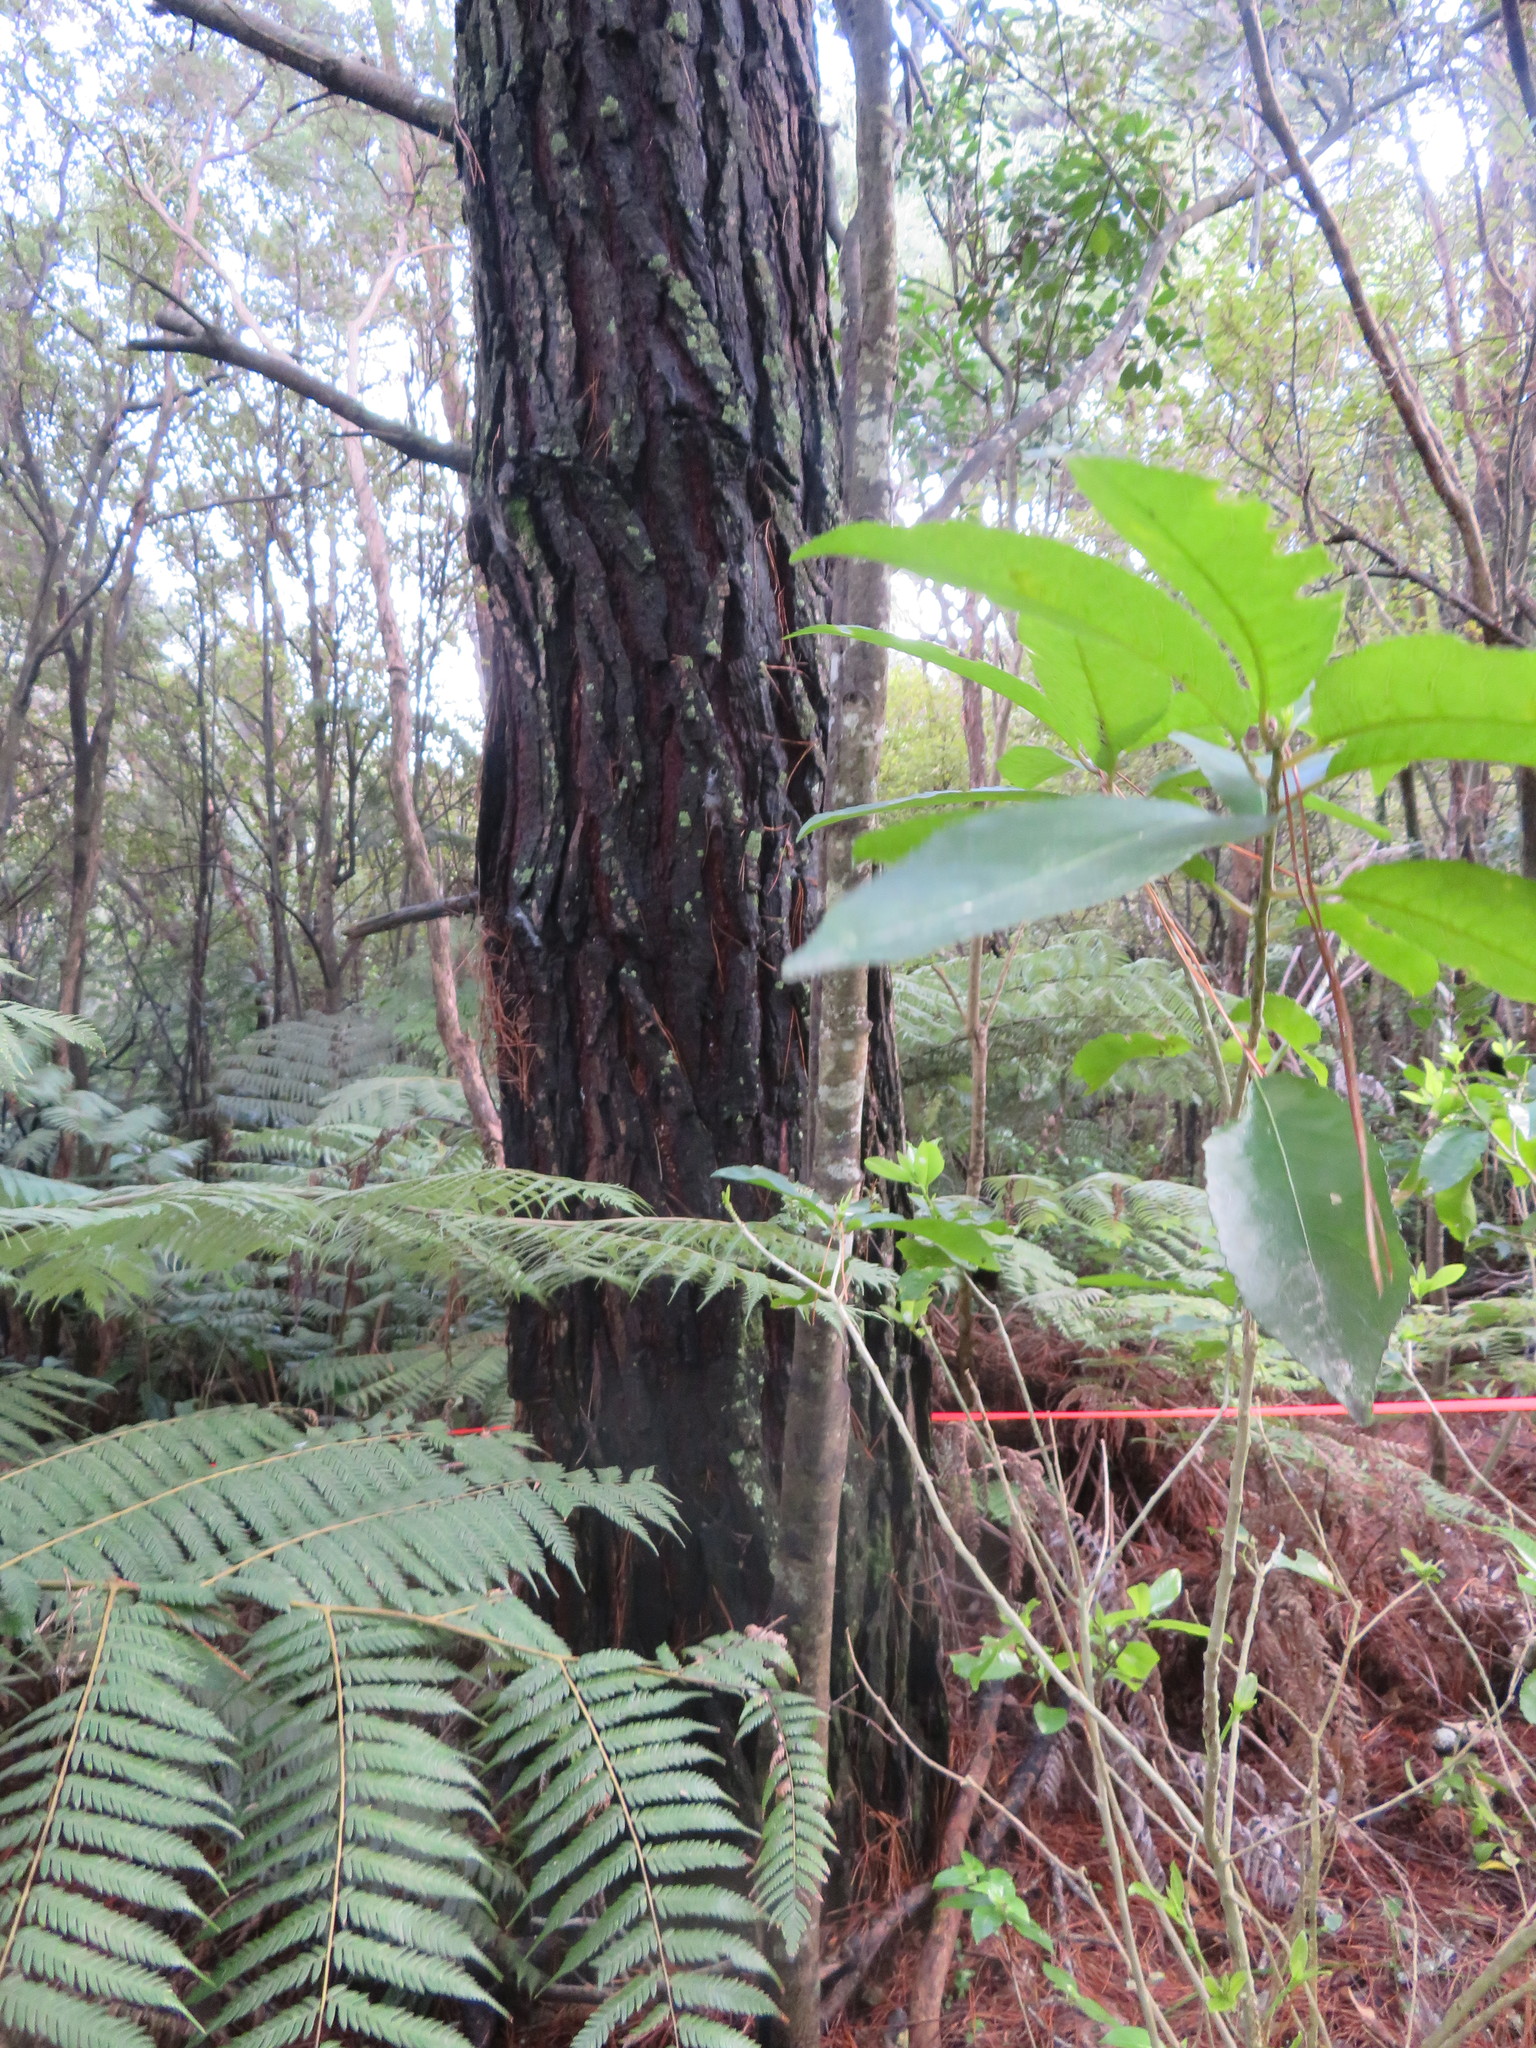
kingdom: Plantae
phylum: Tracheophyta
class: Magnoliopsida
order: Malpighiales
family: Violaceae
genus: Melicytus
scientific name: Melicytus ramiflorus
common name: Mahoe
